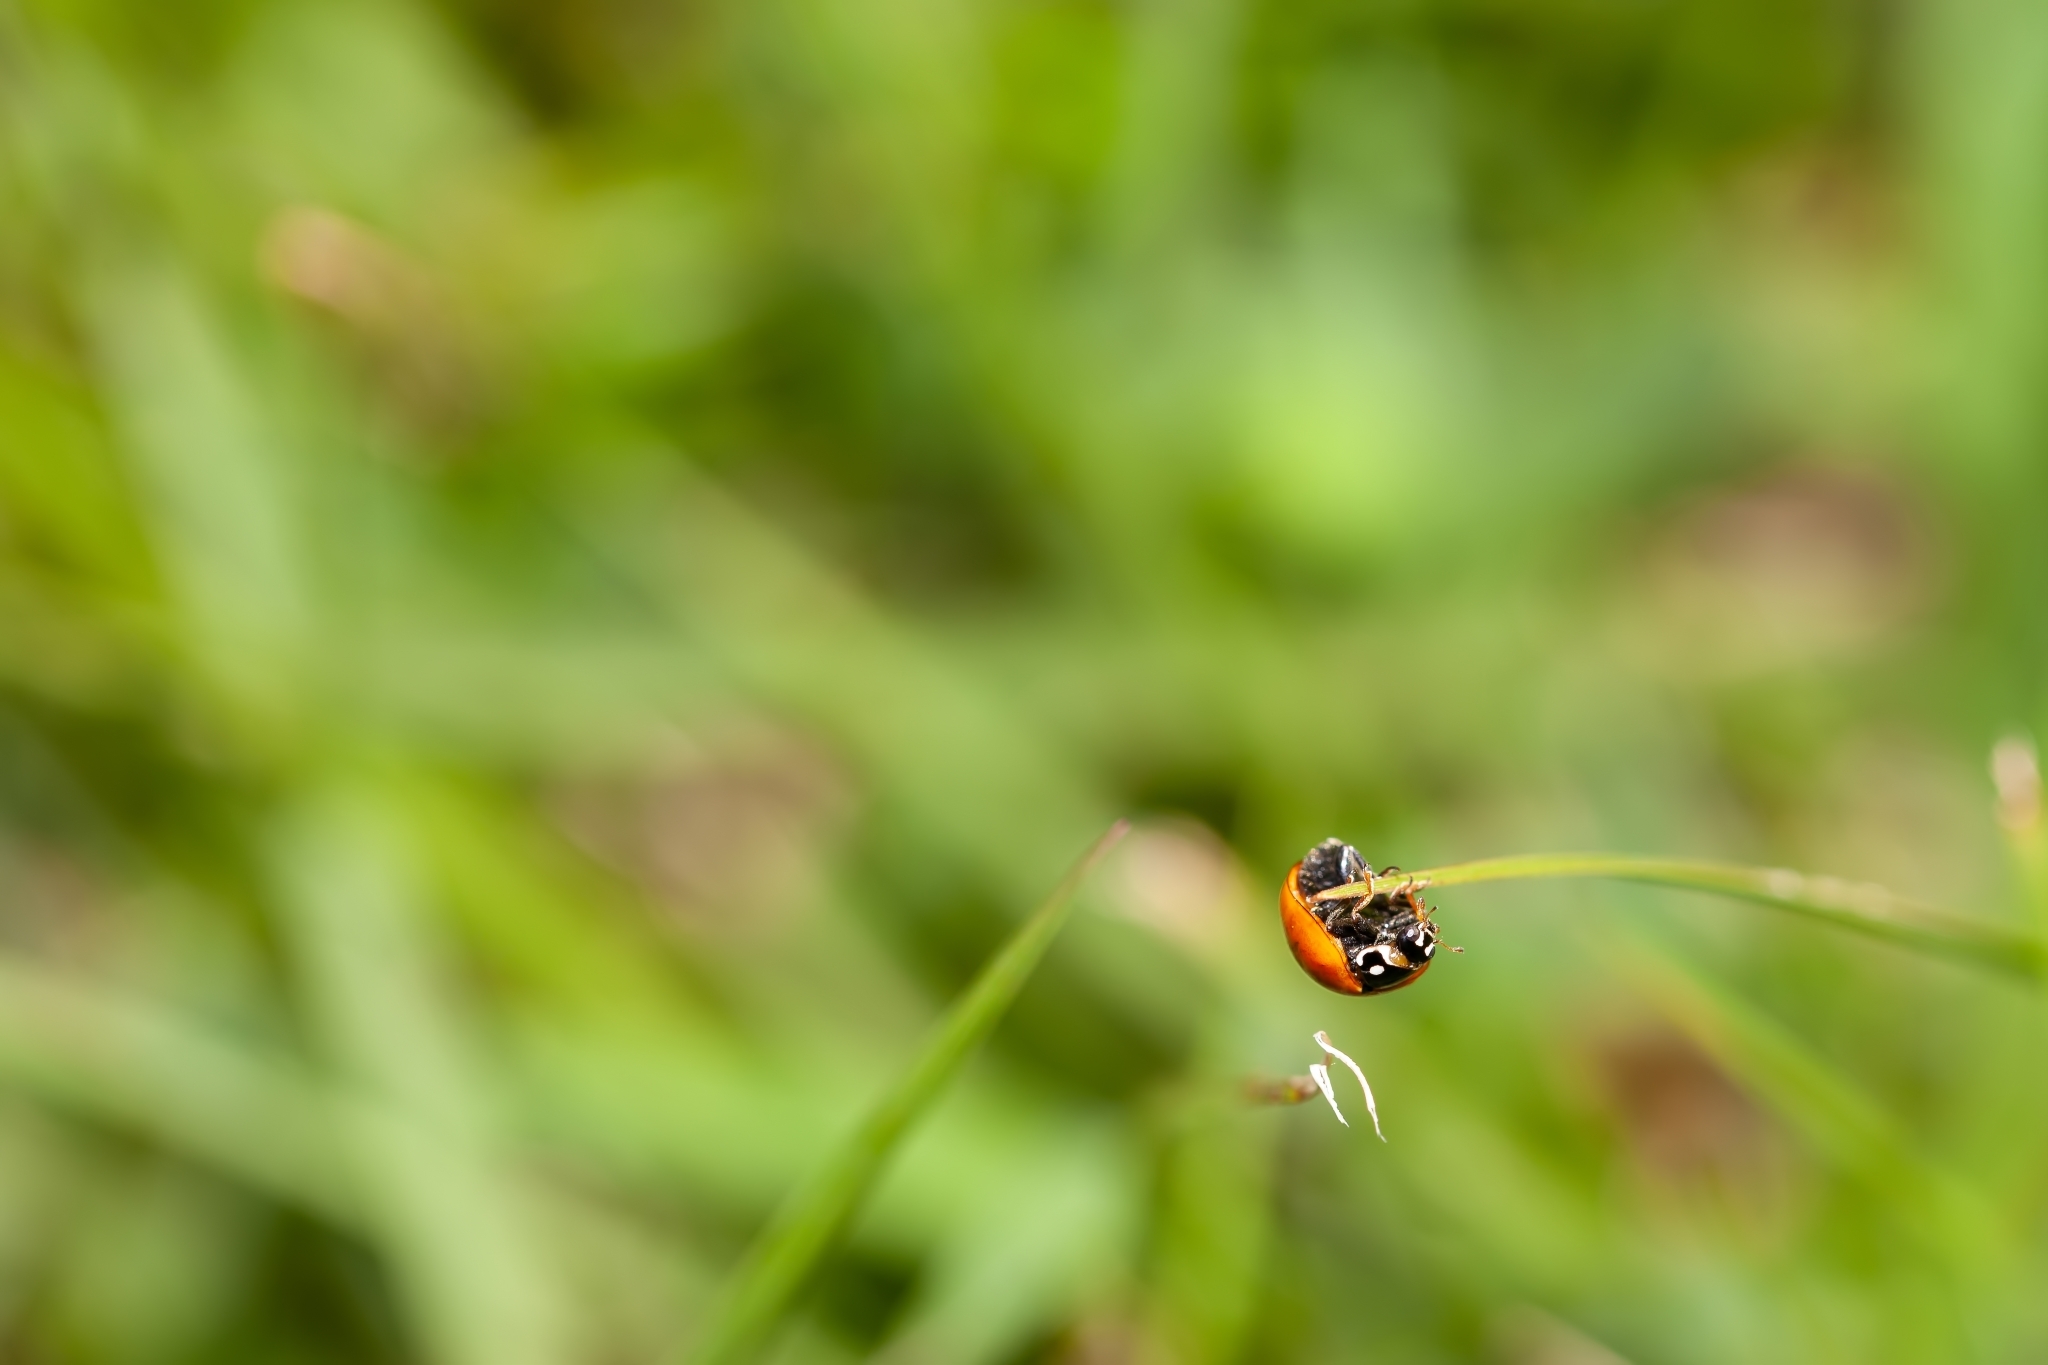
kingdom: Animalia
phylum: Arthropoda
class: Insecta
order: Coleoptera
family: Coccinellidae
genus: Cycloneda
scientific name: Cycloneda sanguinea
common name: Ladybird beetle
